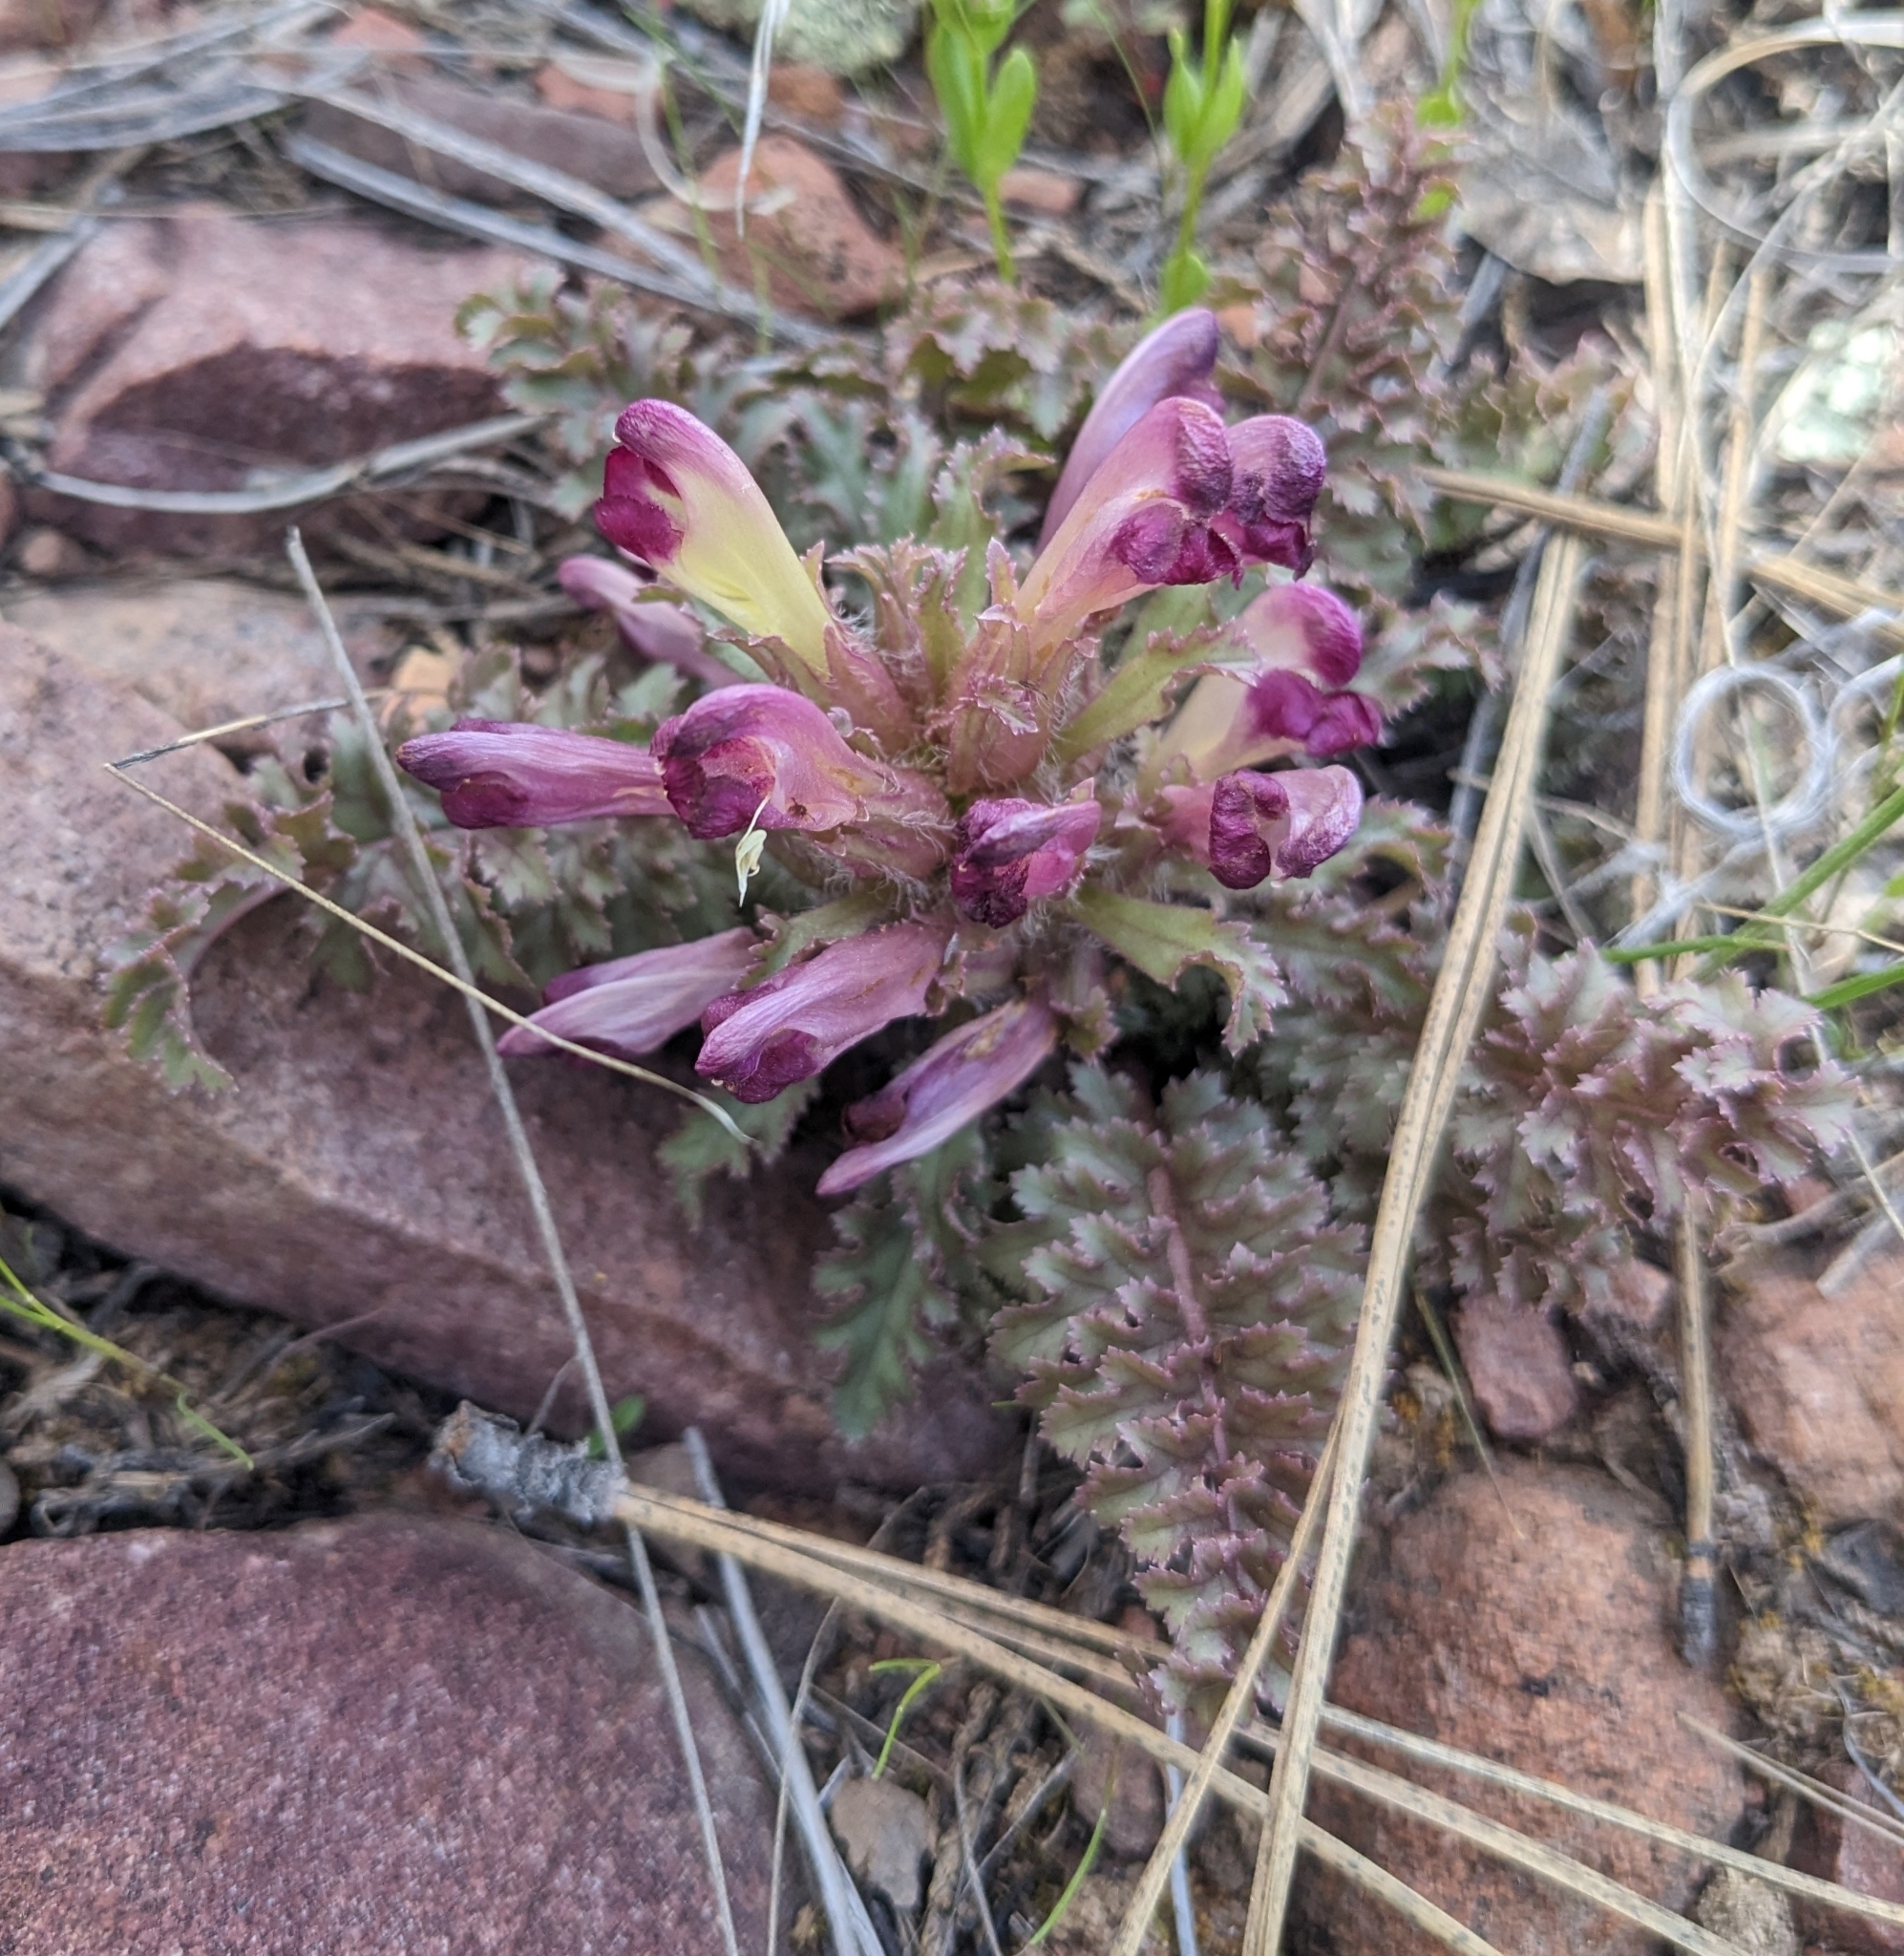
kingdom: Plantae
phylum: Tracheophyta
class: Magnoliopsida
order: Lamiales
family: Orobanchaceae
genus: Pedicularis
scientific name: Pedicularis centranthera
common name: Dwarf lousewort
